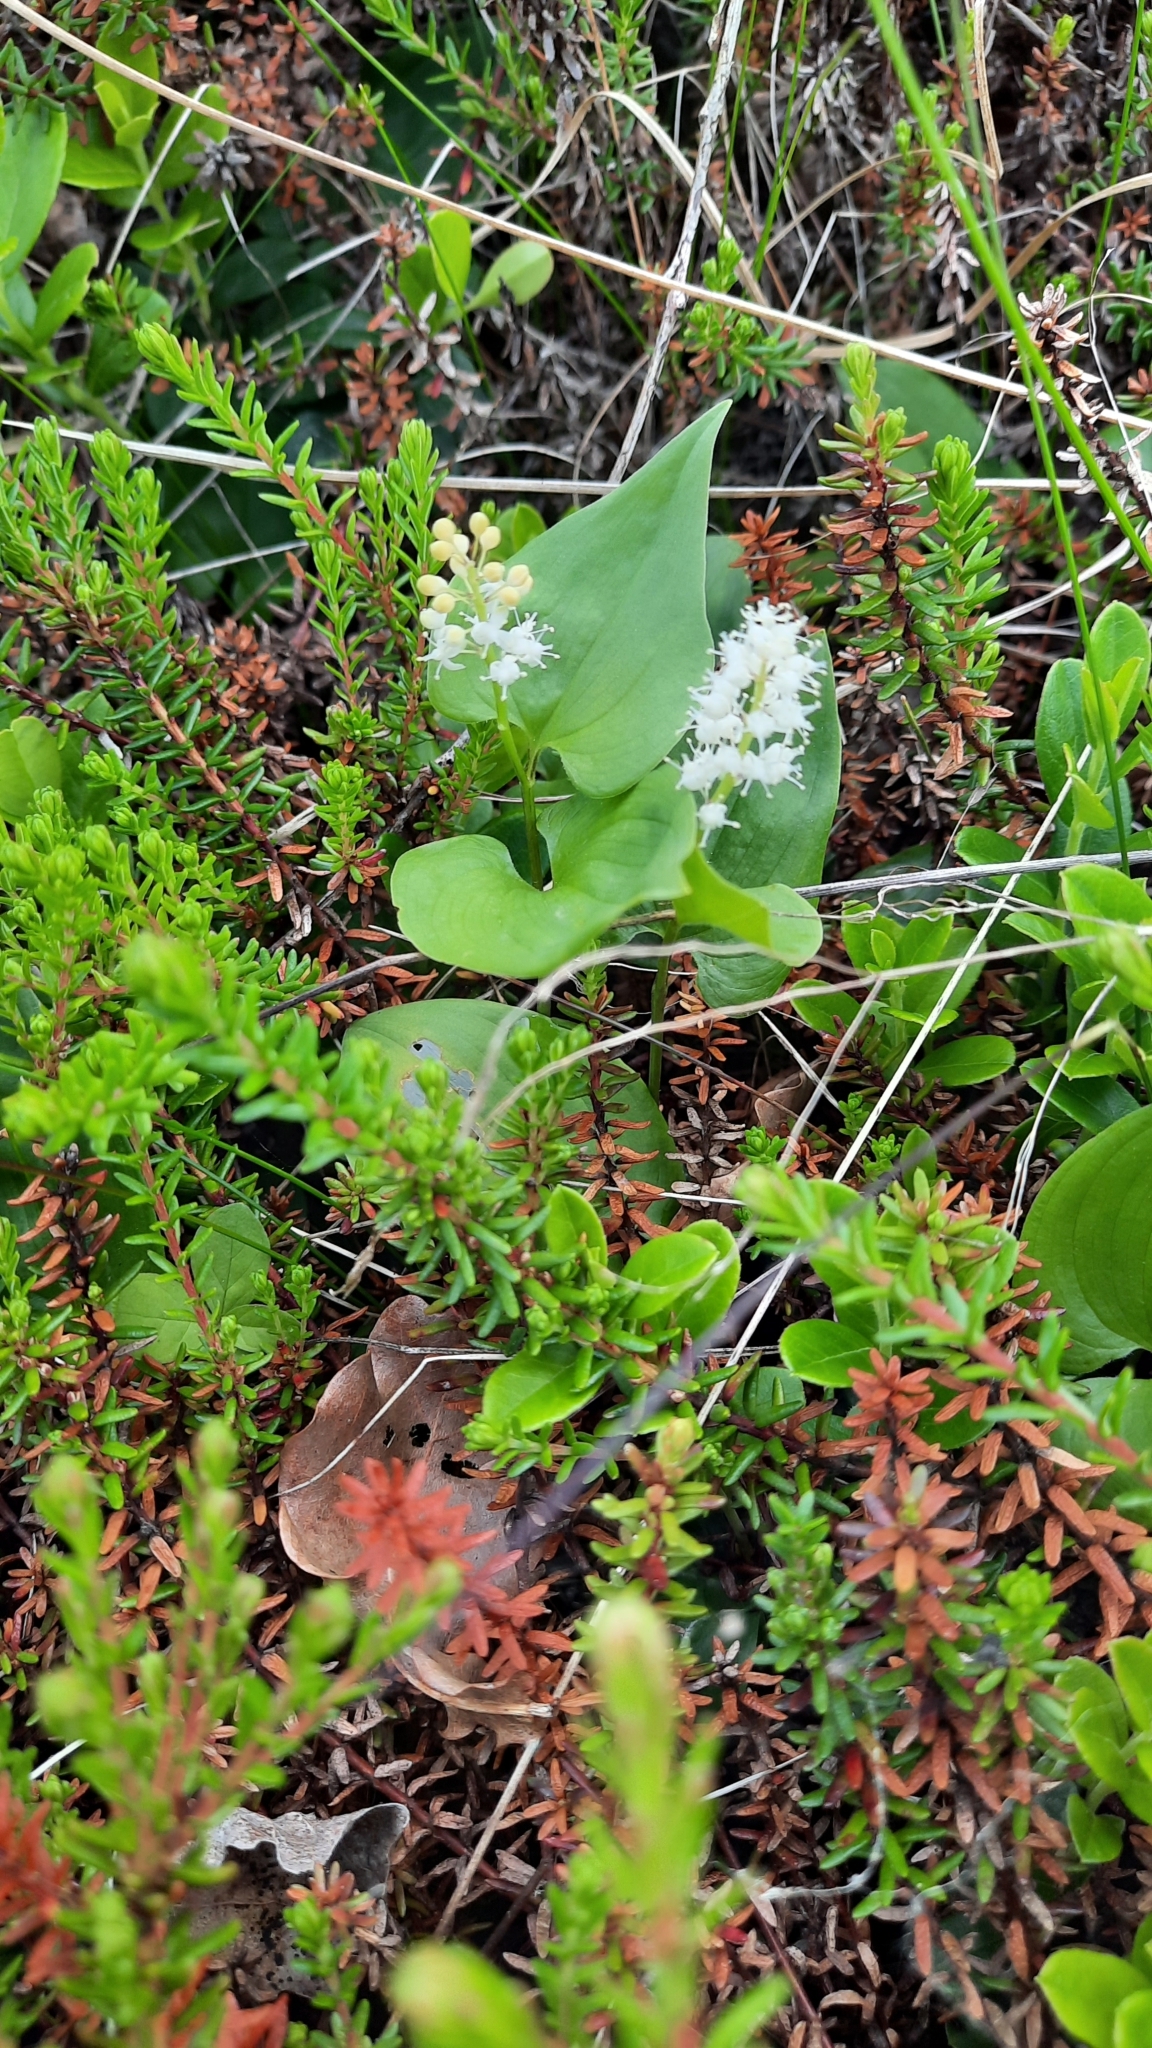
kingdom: Plantae
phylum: Tracheophyta
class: Liliopsida
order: Asparagales
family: Asparagaceae
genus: Maianthemum
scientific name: Maianthemum bifolium
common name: May lily
